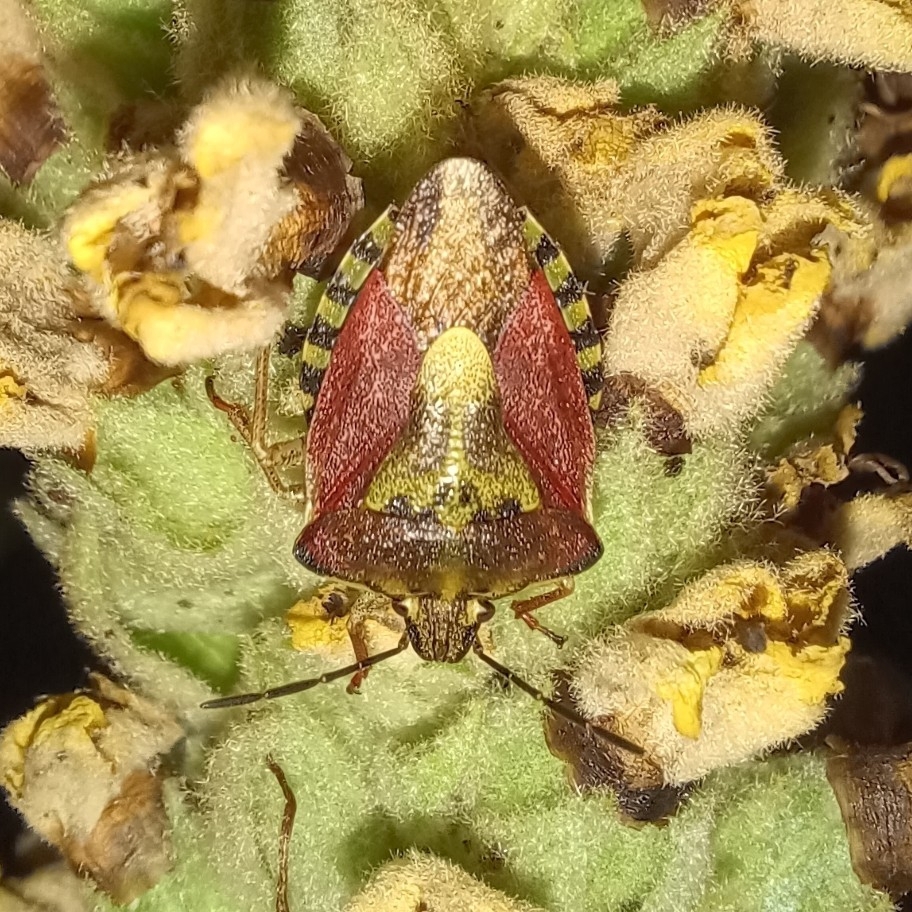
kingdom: Animalia
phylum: Arthropoda
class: Insecta
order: Hemiptera
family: Pentatomidae
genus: Carpocoris
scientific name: Carpocoris purpureipennis
